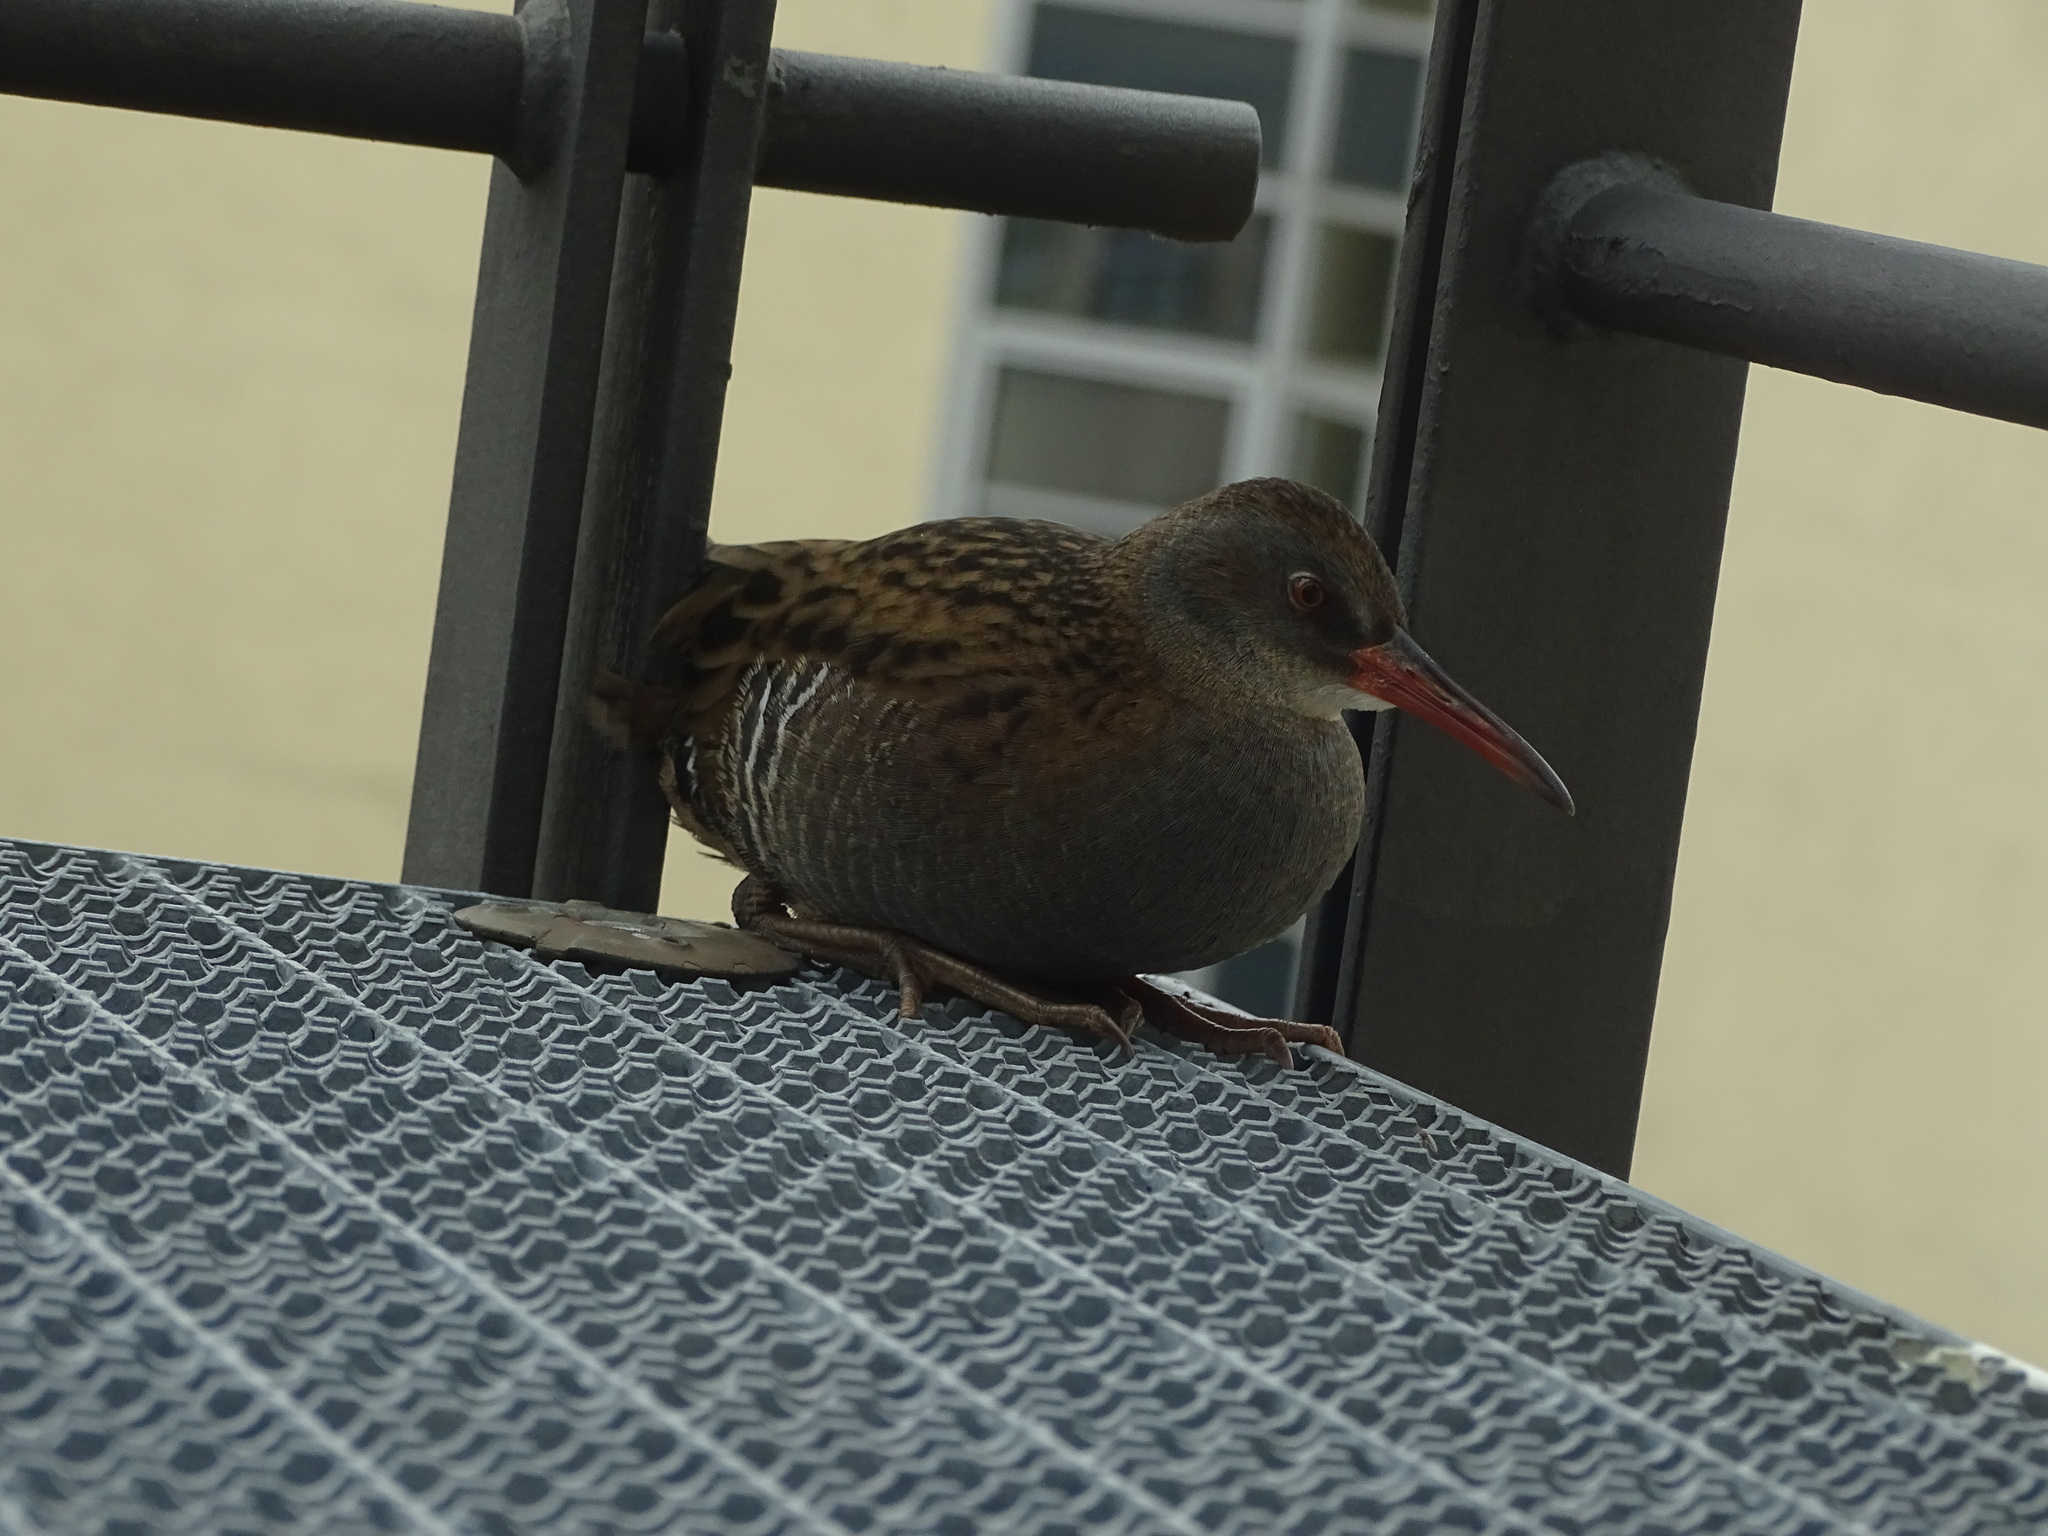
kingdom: Animalia
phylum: Chordata
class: Aves
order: Gruiformes
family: Rallidae
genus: Rallus
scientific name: Rallus aquaticus
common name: Water rail
